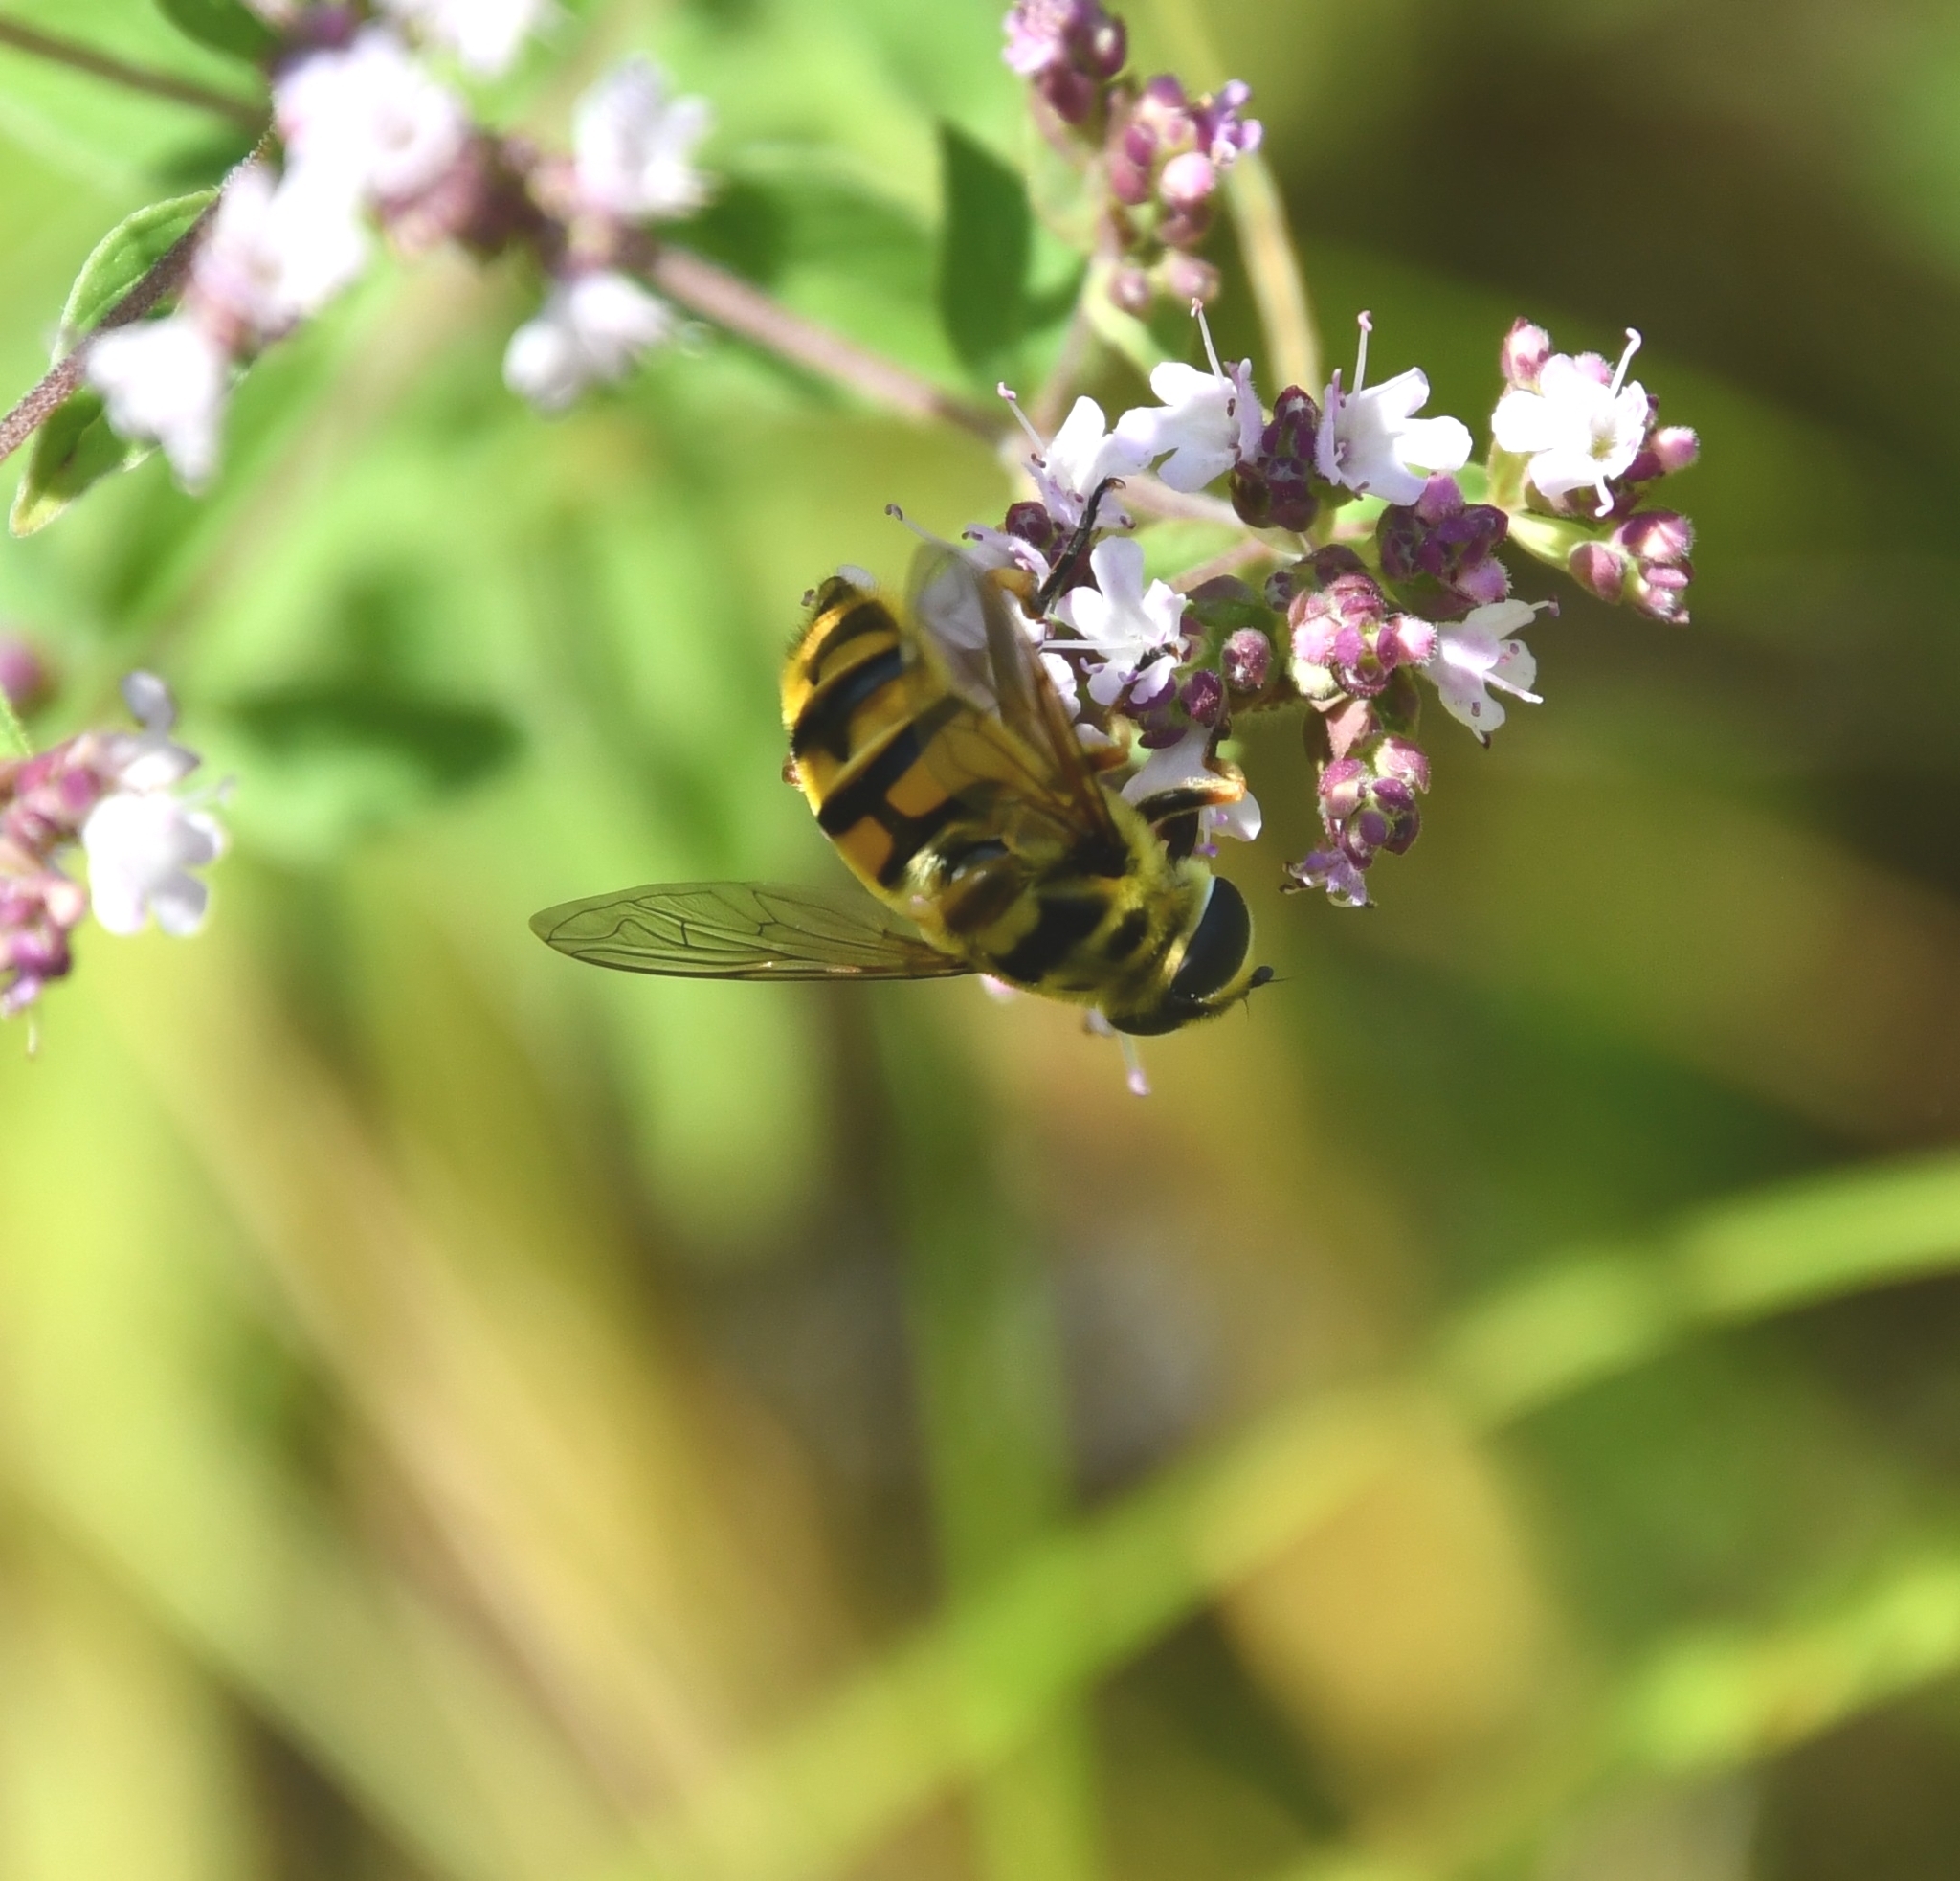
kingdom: Animalia
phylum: Arthropoda
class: Insecta
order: Diptera
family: Syrphidae
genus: Myathropa
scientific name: Myathropa florea
